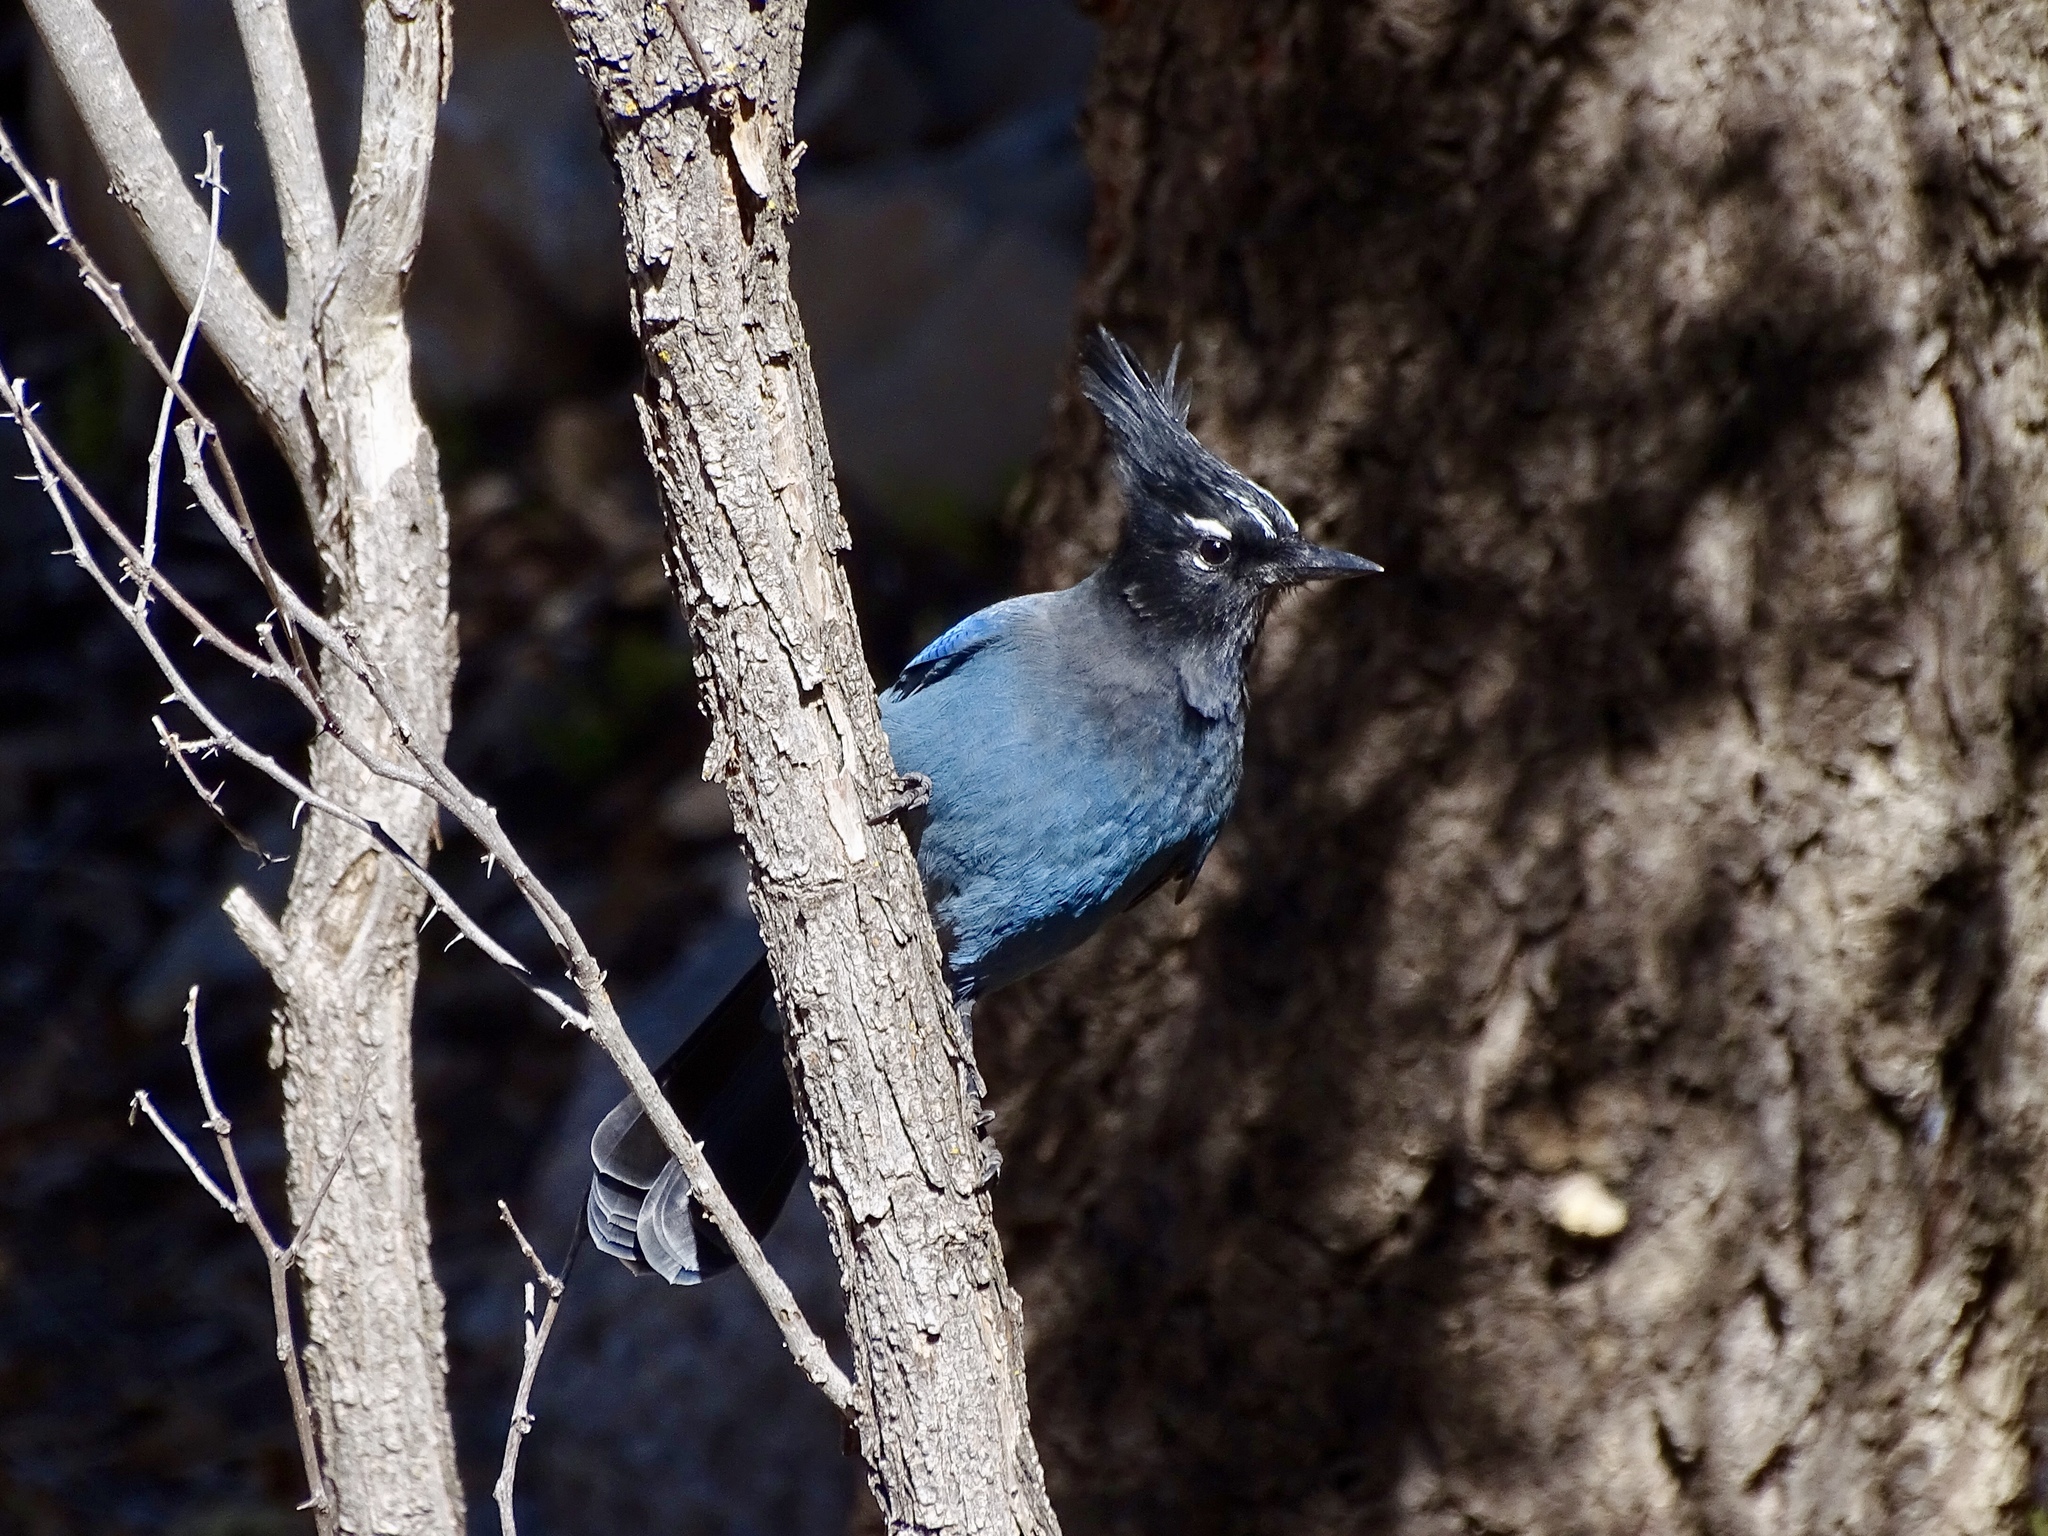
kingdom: Animalia
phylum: Chordata
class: Aves
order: Passeriformes
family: Corvidae
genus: Cyanocitta
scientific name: Cyanocitta stelleri
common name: Steller's jay
